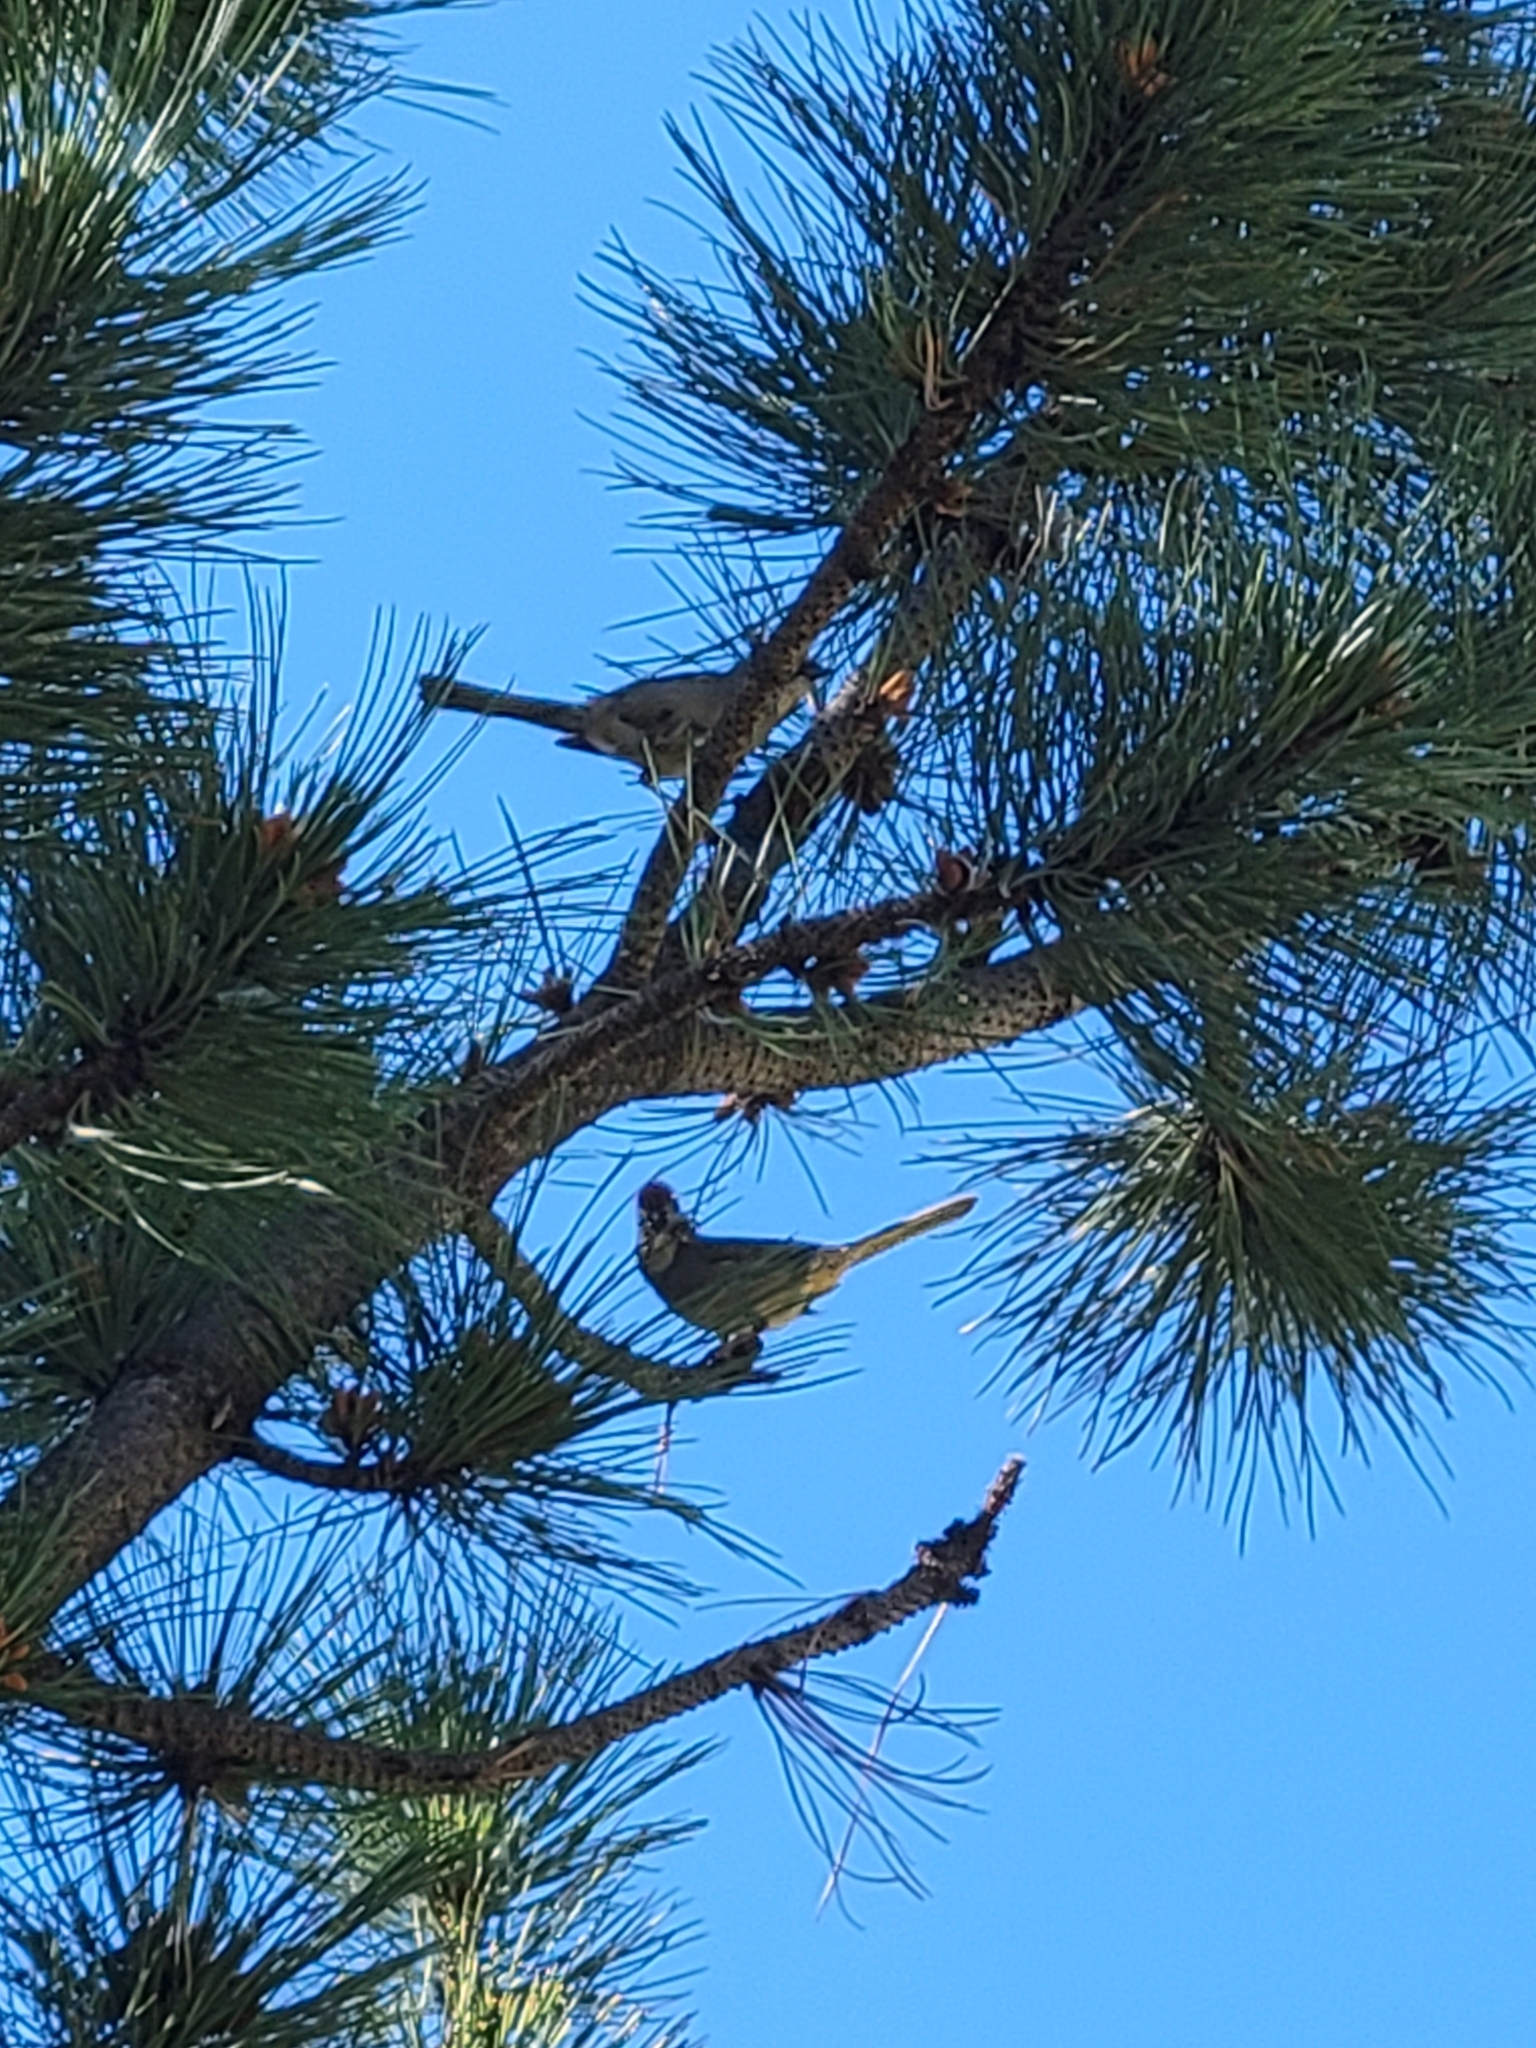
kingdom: Animalia
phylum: Chordata
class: Aves
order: Passeriformes
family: Passerellidae
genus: Pipilo
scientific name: Pipilo chlorurus
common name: Green-tailed towhee
